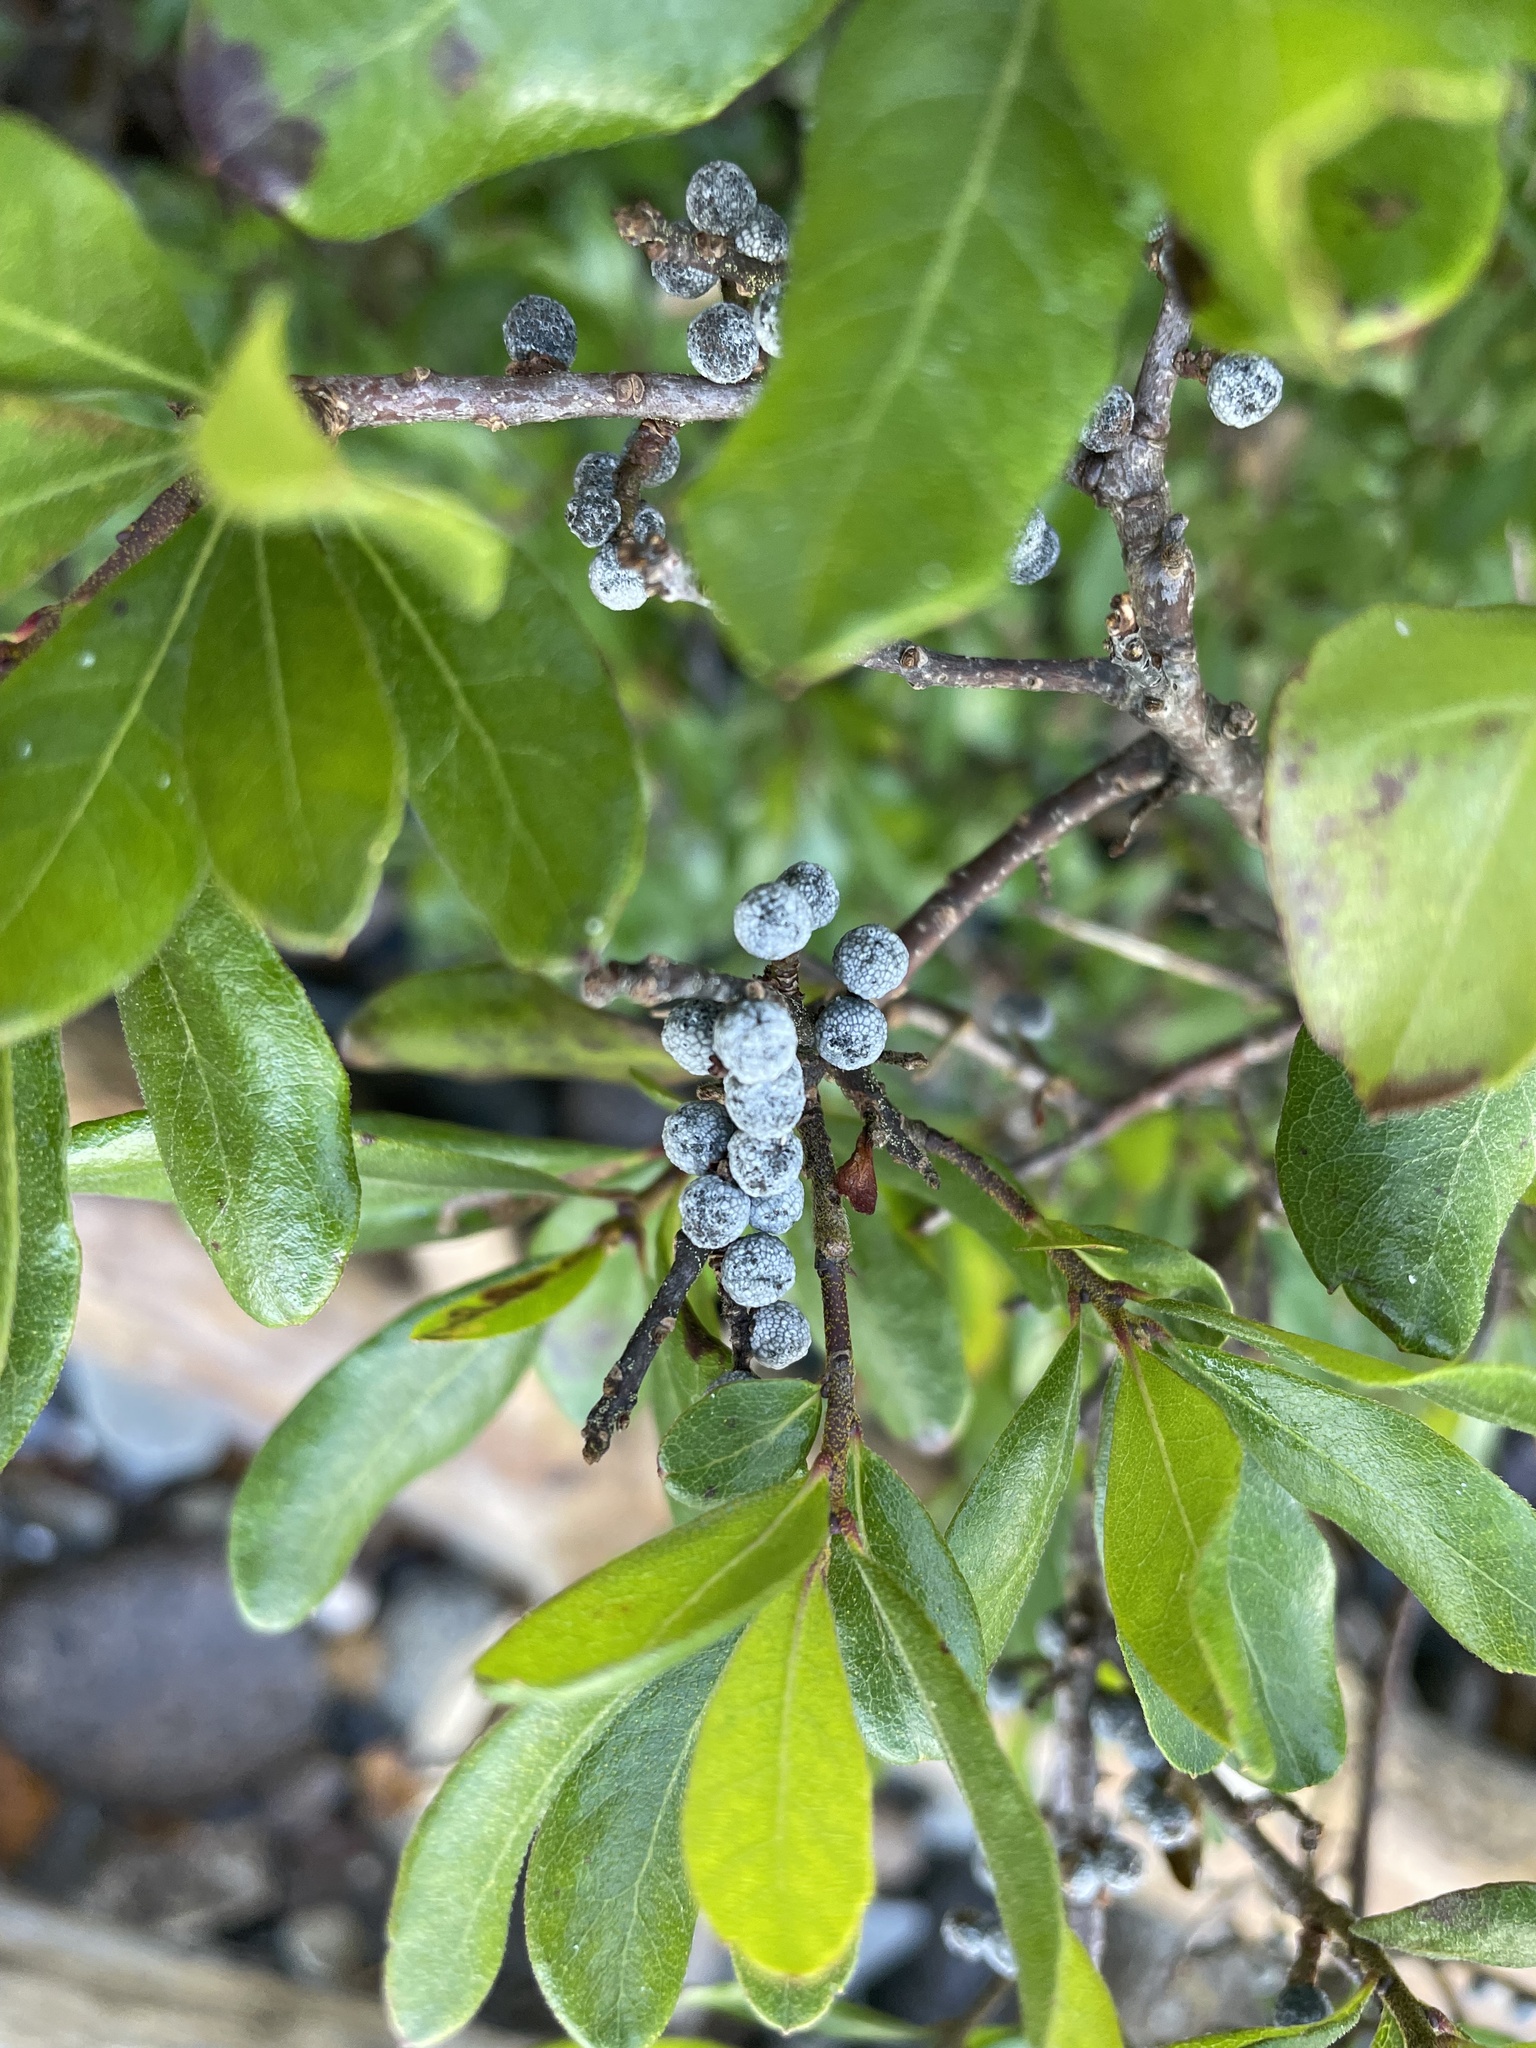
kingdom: Plantae
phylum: Tracheophyta
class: Magnoliopsida
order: Fagales
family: Myricaceae
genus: Morella
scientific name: Morella pensylvanica
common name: Northern bayberry
